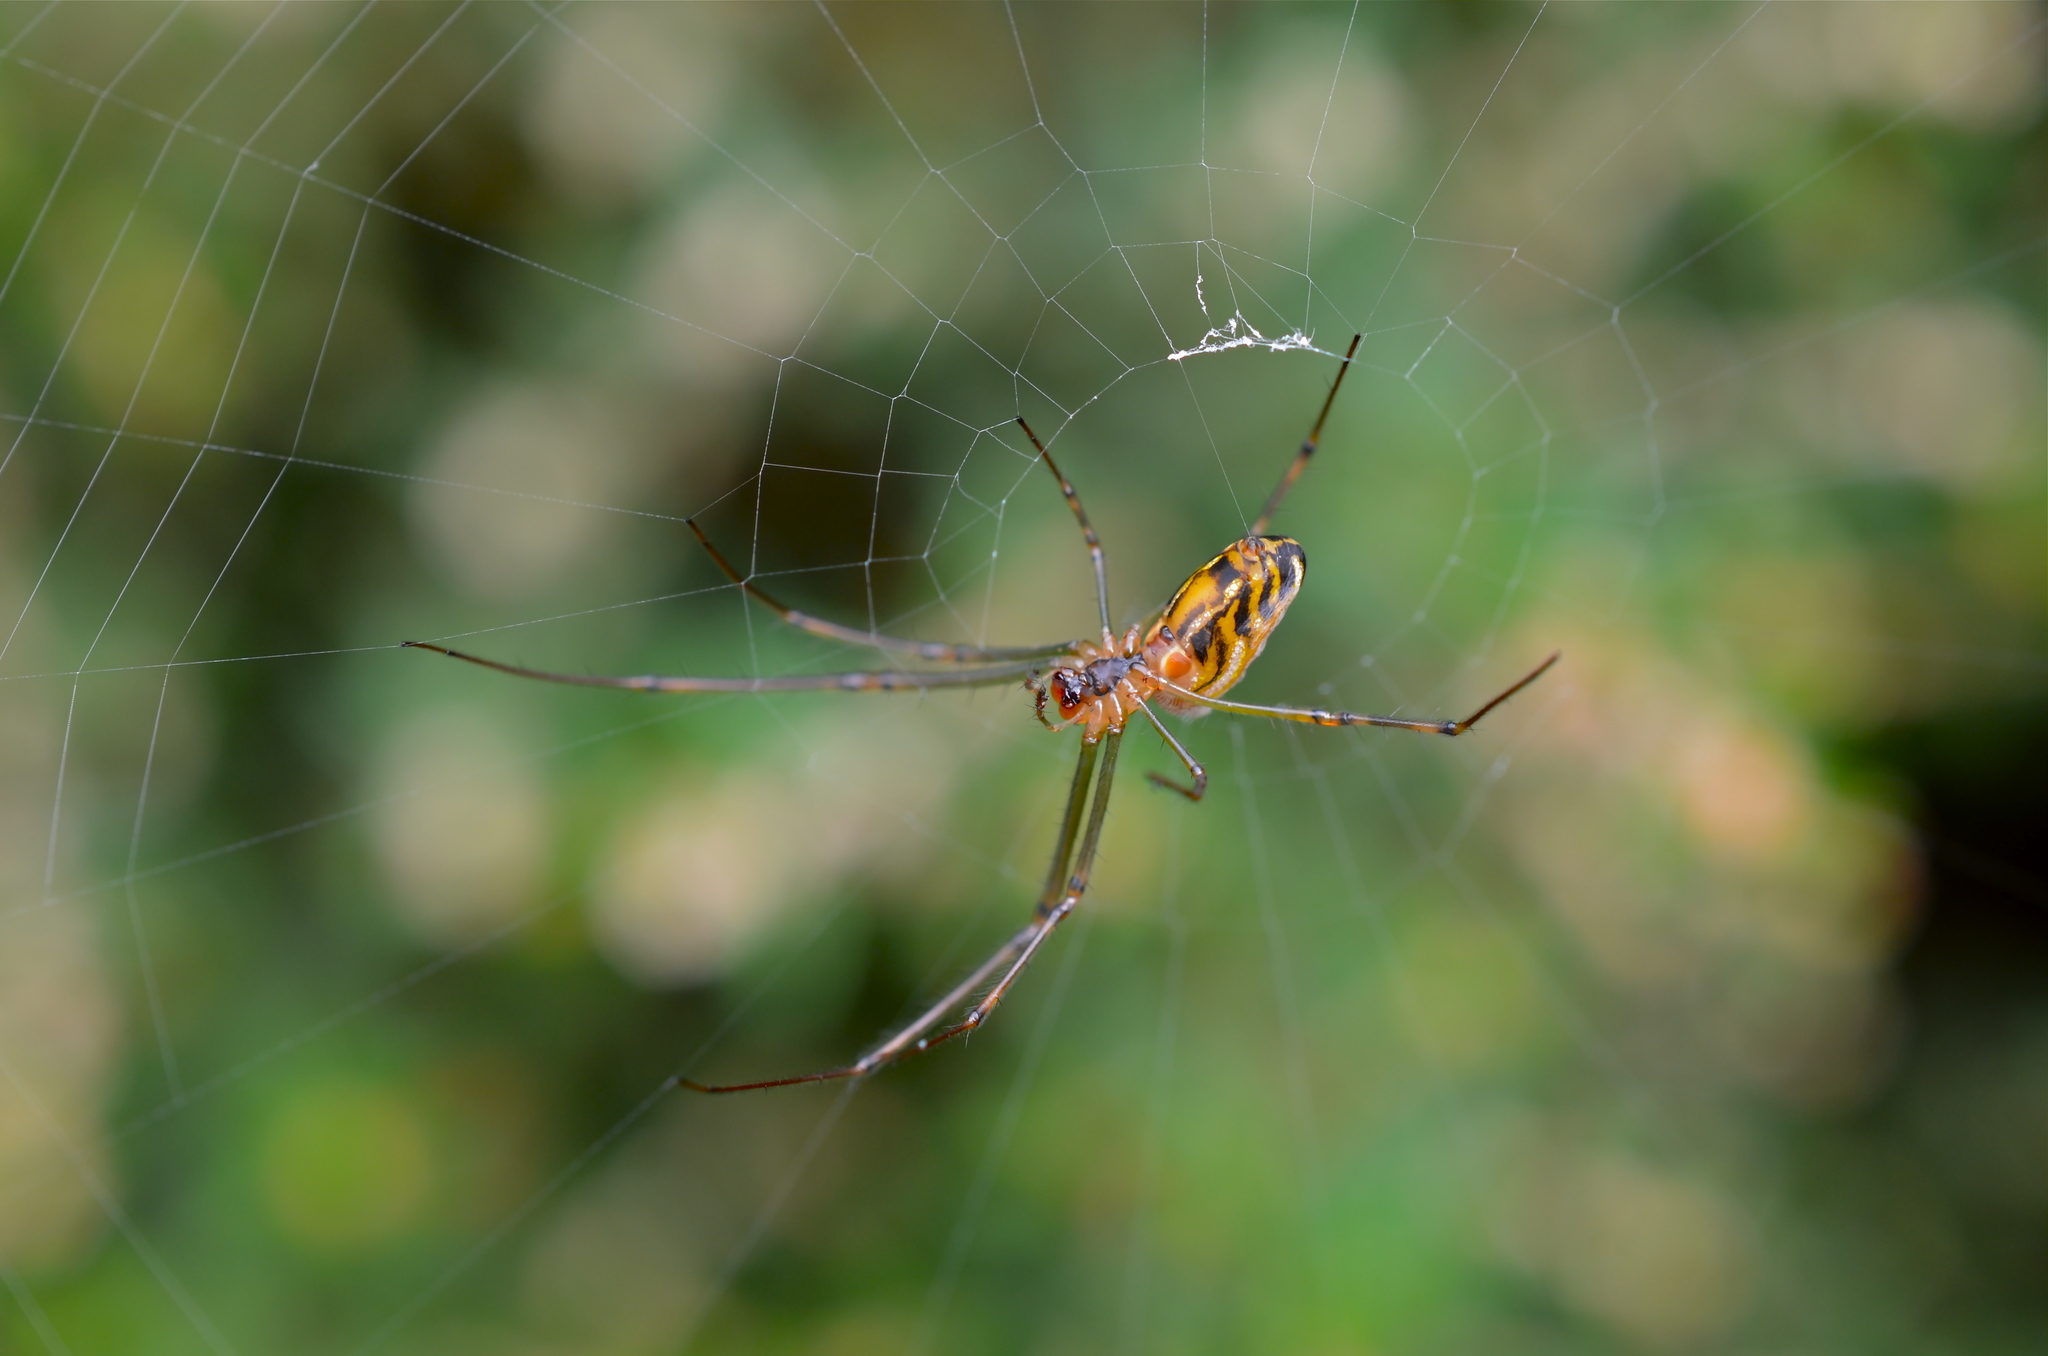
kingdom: Animalia
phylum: Arthropoda
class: Arachnida
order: Araneae
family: Tetragnathidae
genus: Leucauge
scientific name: Leucauge dromedaria
